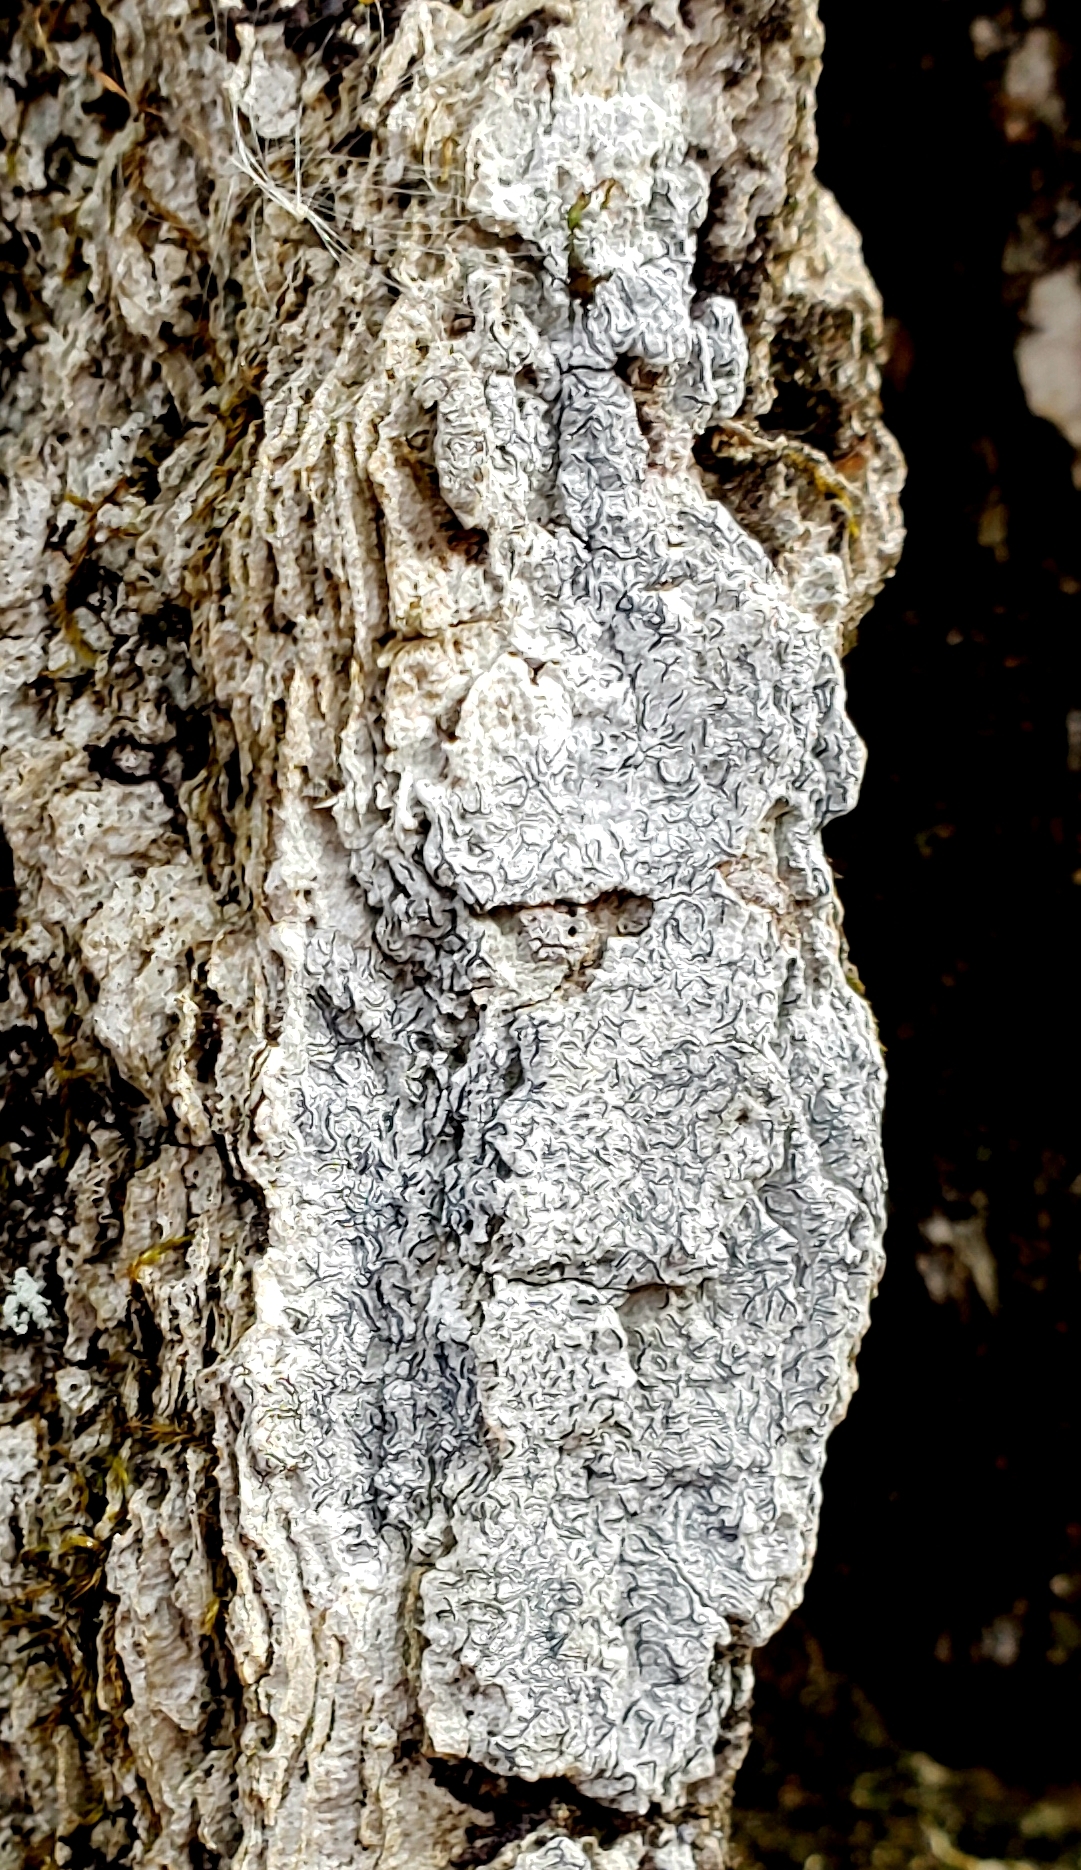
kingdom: Fungi
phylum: Ascomycota
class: Lecanoromycetes
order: Ostropales
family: Graphidaceae
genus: Graphis
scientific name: Graphis scripta
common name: Script lichen
